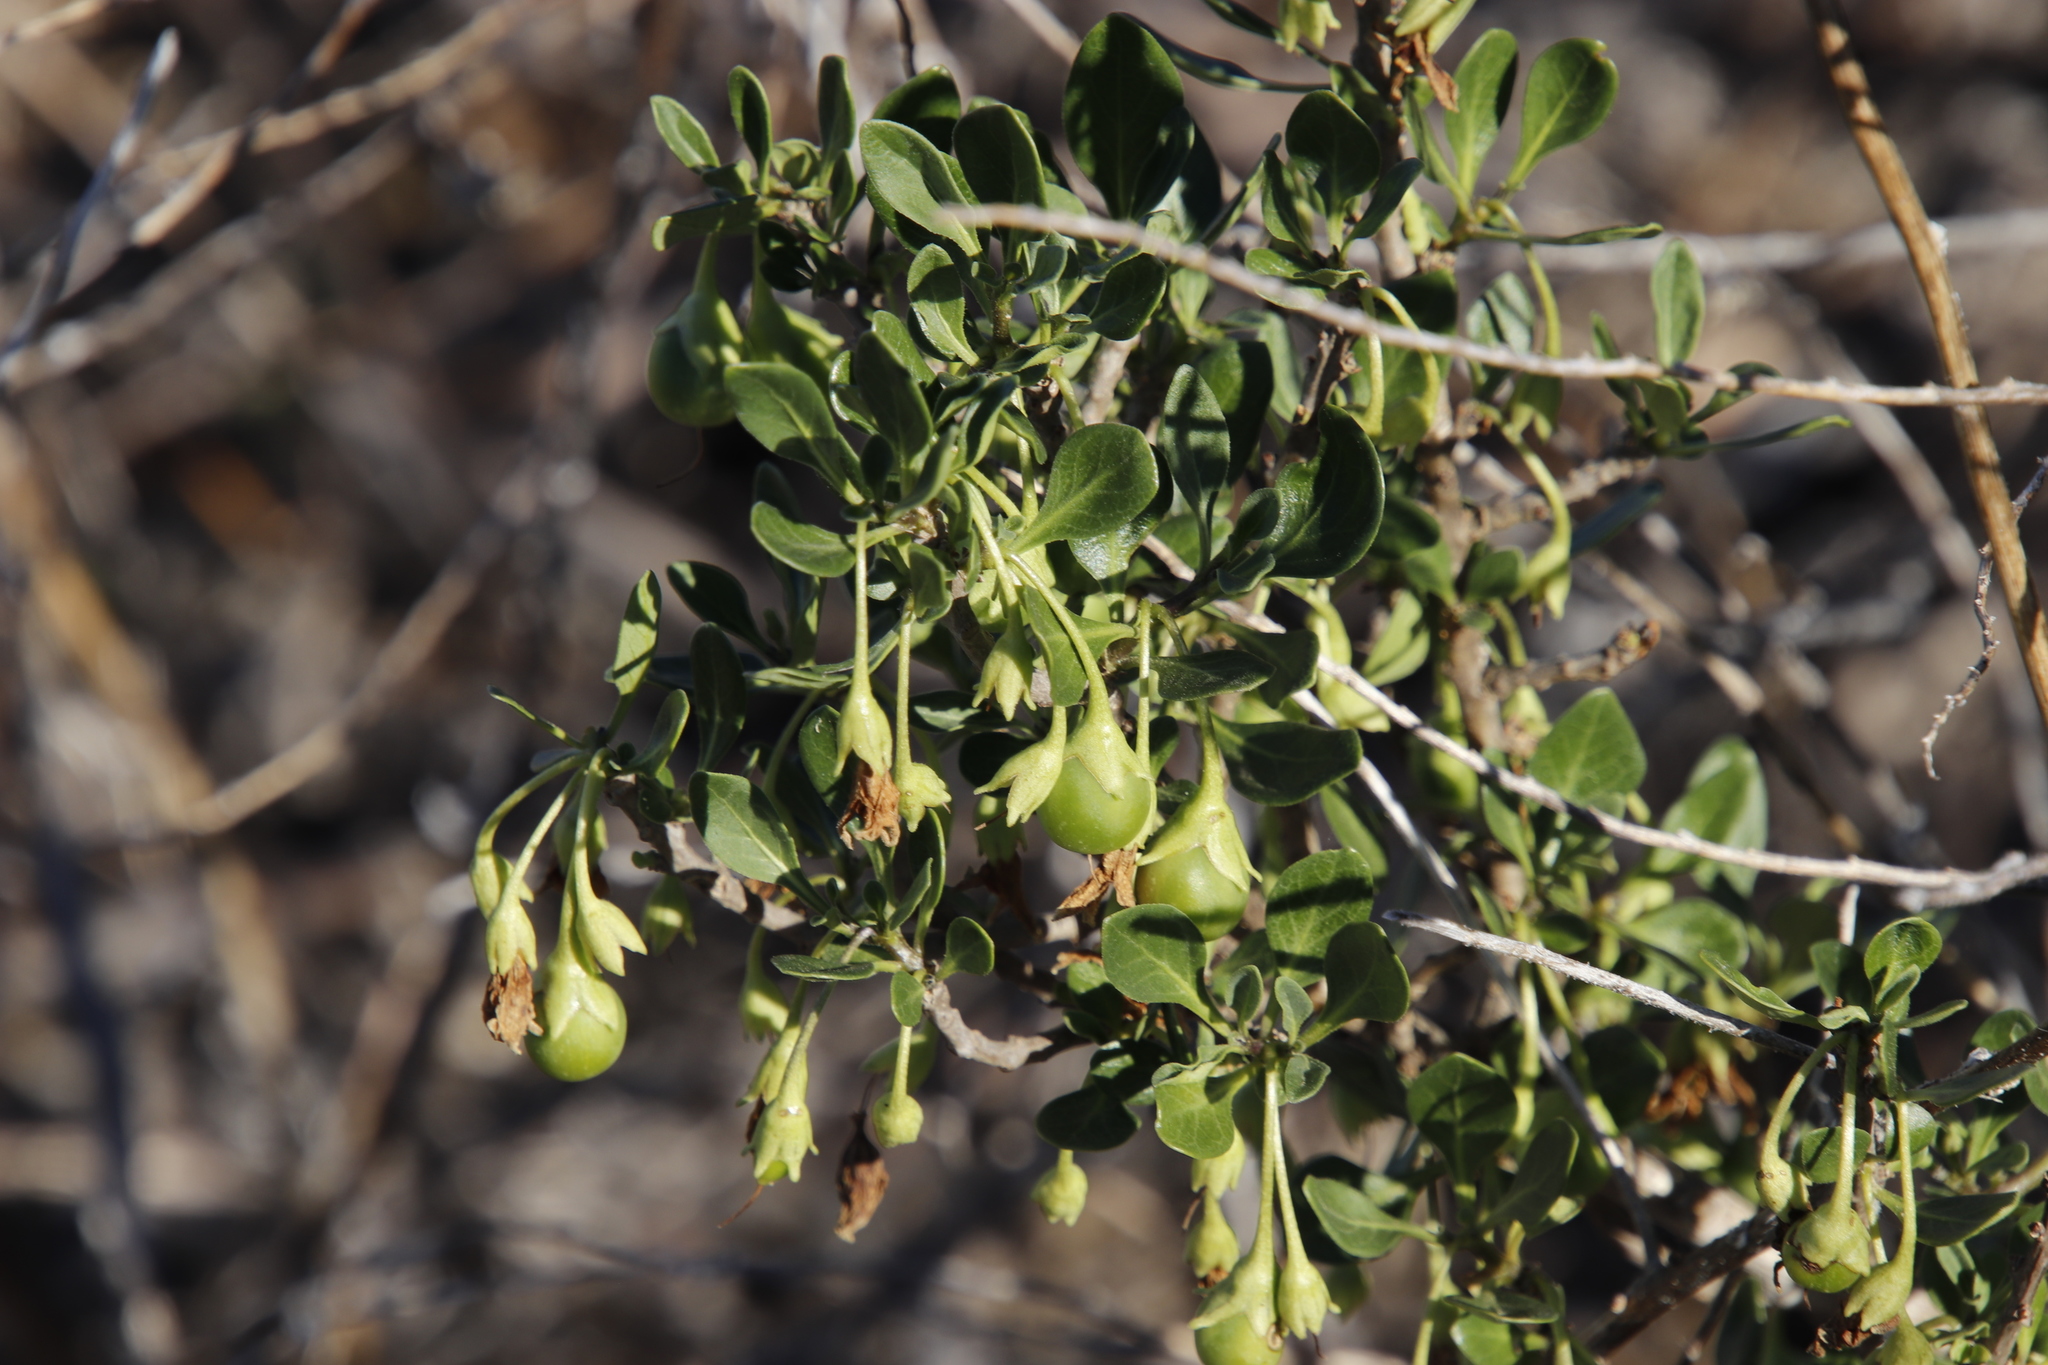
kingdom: Plantae
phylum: Tracheophyta
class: Magnoliopsida
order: Solanales
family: Solanaceae
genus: Solanum
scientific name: Solanum guineense
